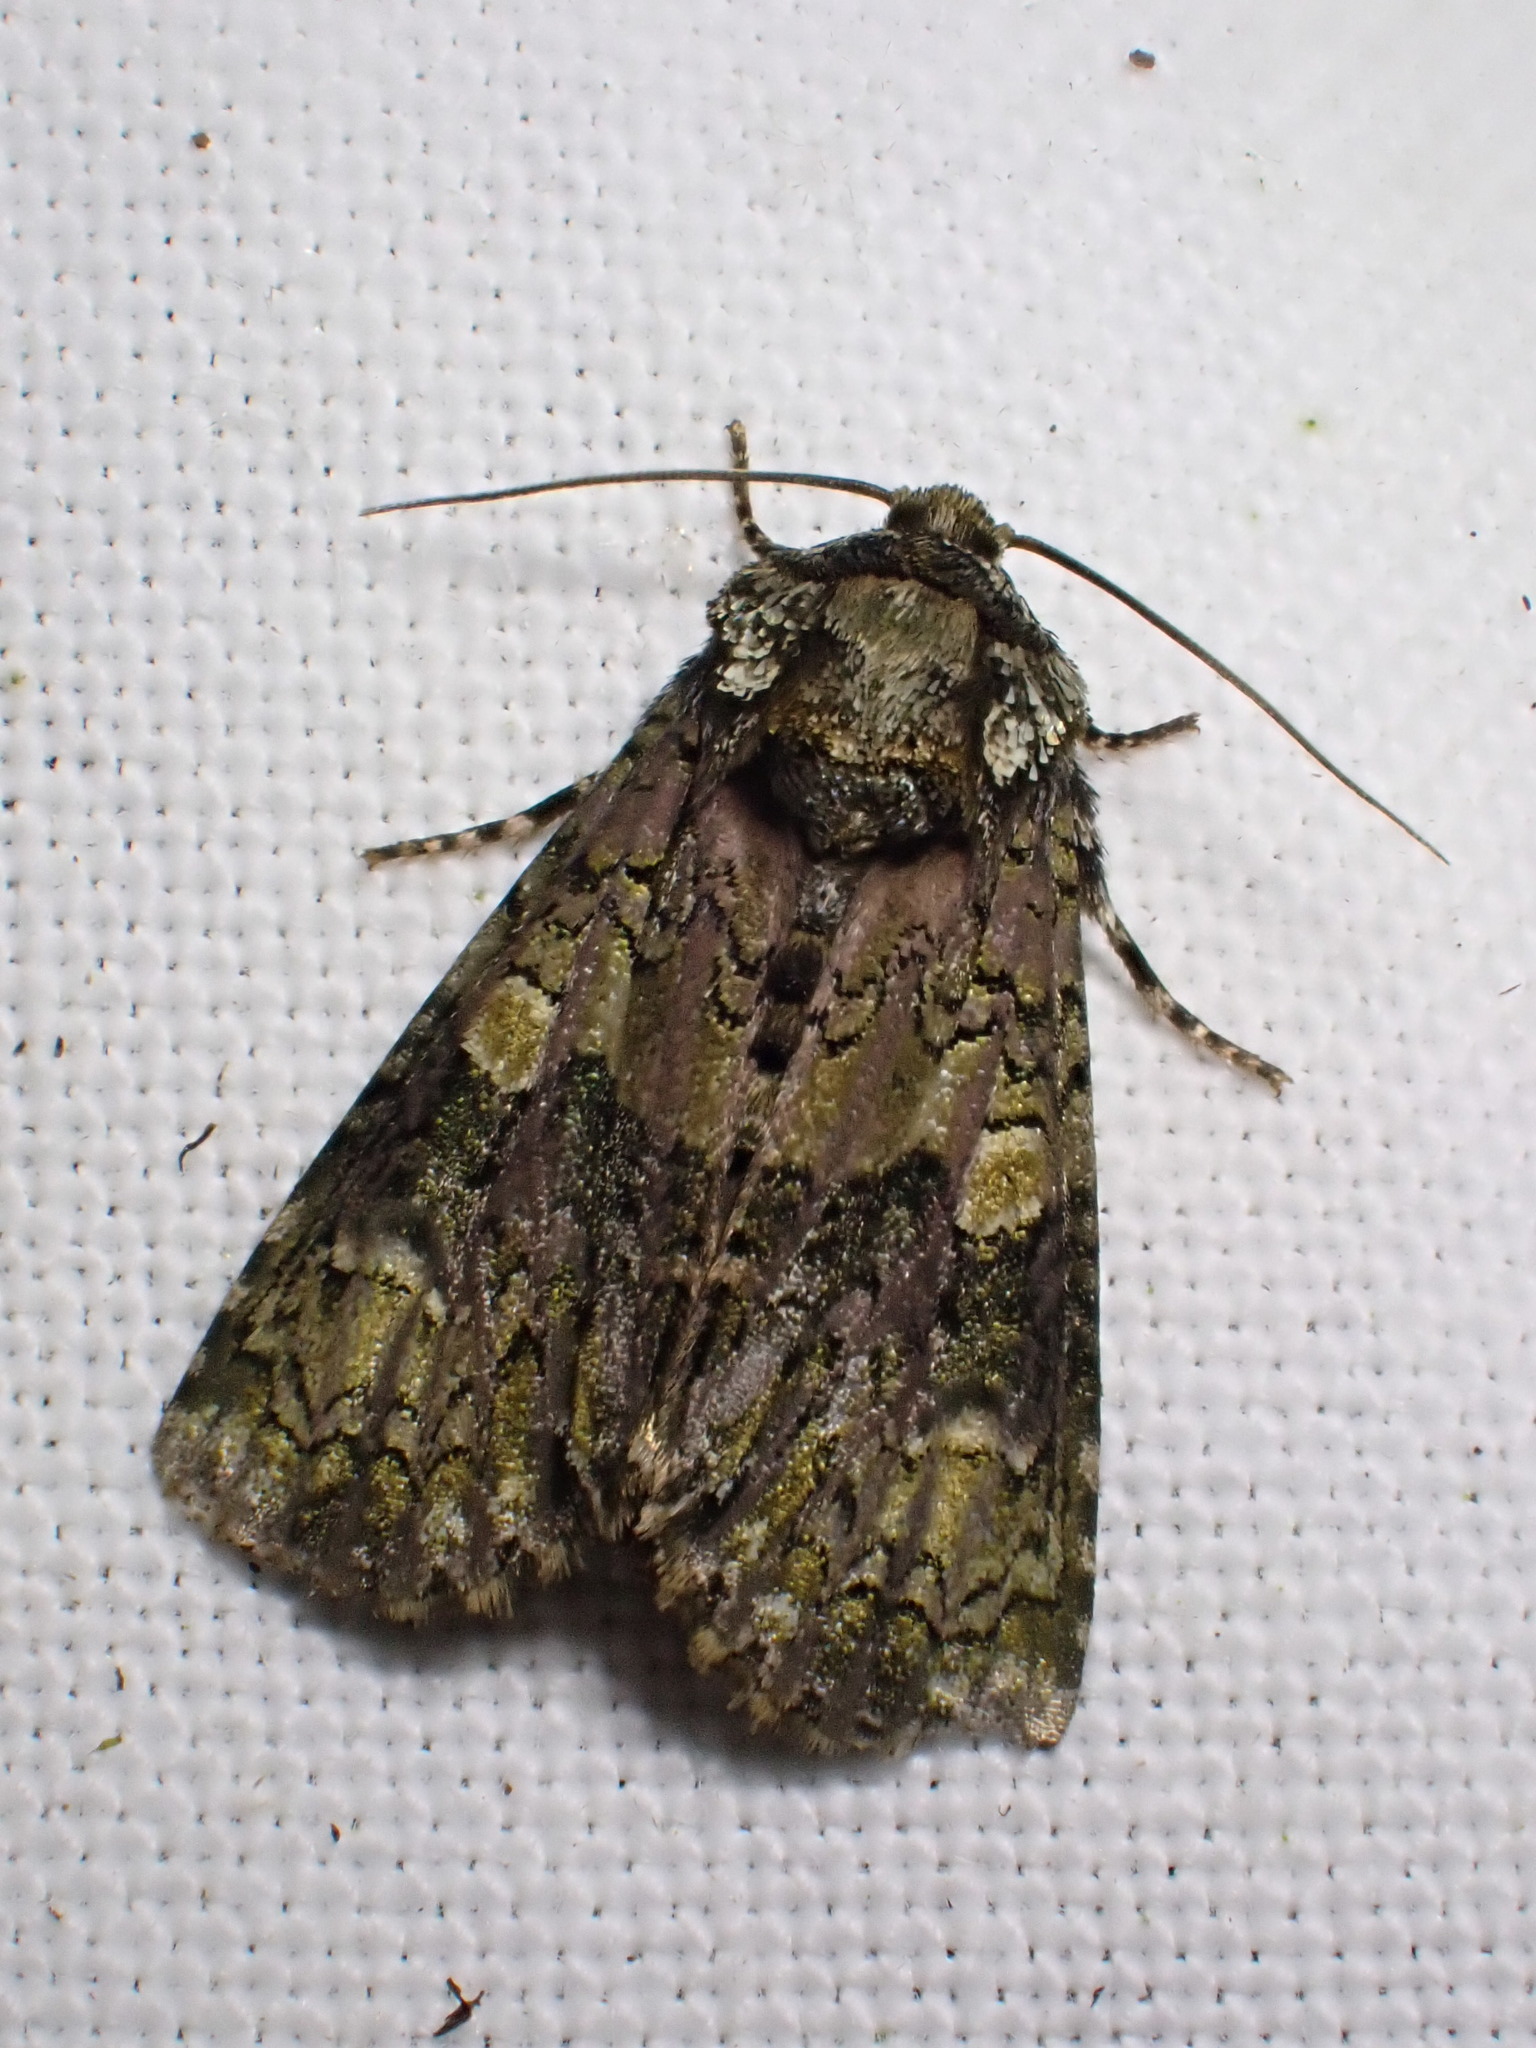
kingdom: Animalia
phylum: Arthropoda
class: Insecta
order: Lepidoptera
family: Noctuidae
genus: Craniophora
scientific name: Craniophora ligustri
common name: Coronet
